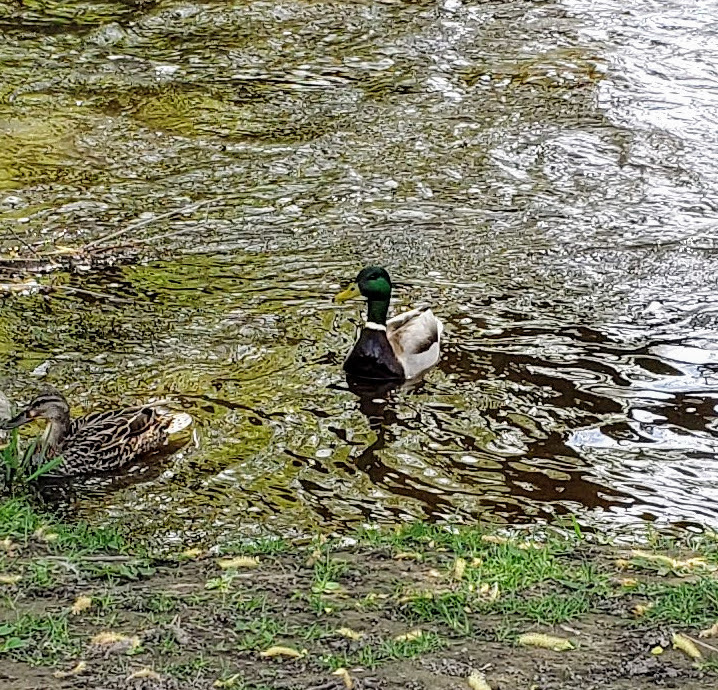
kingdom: Animalia
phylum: Chordata
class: Aves
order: Anseriformes
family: Anatidae
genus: Anas
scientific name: Anas platyrhynchos
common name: Mallard
